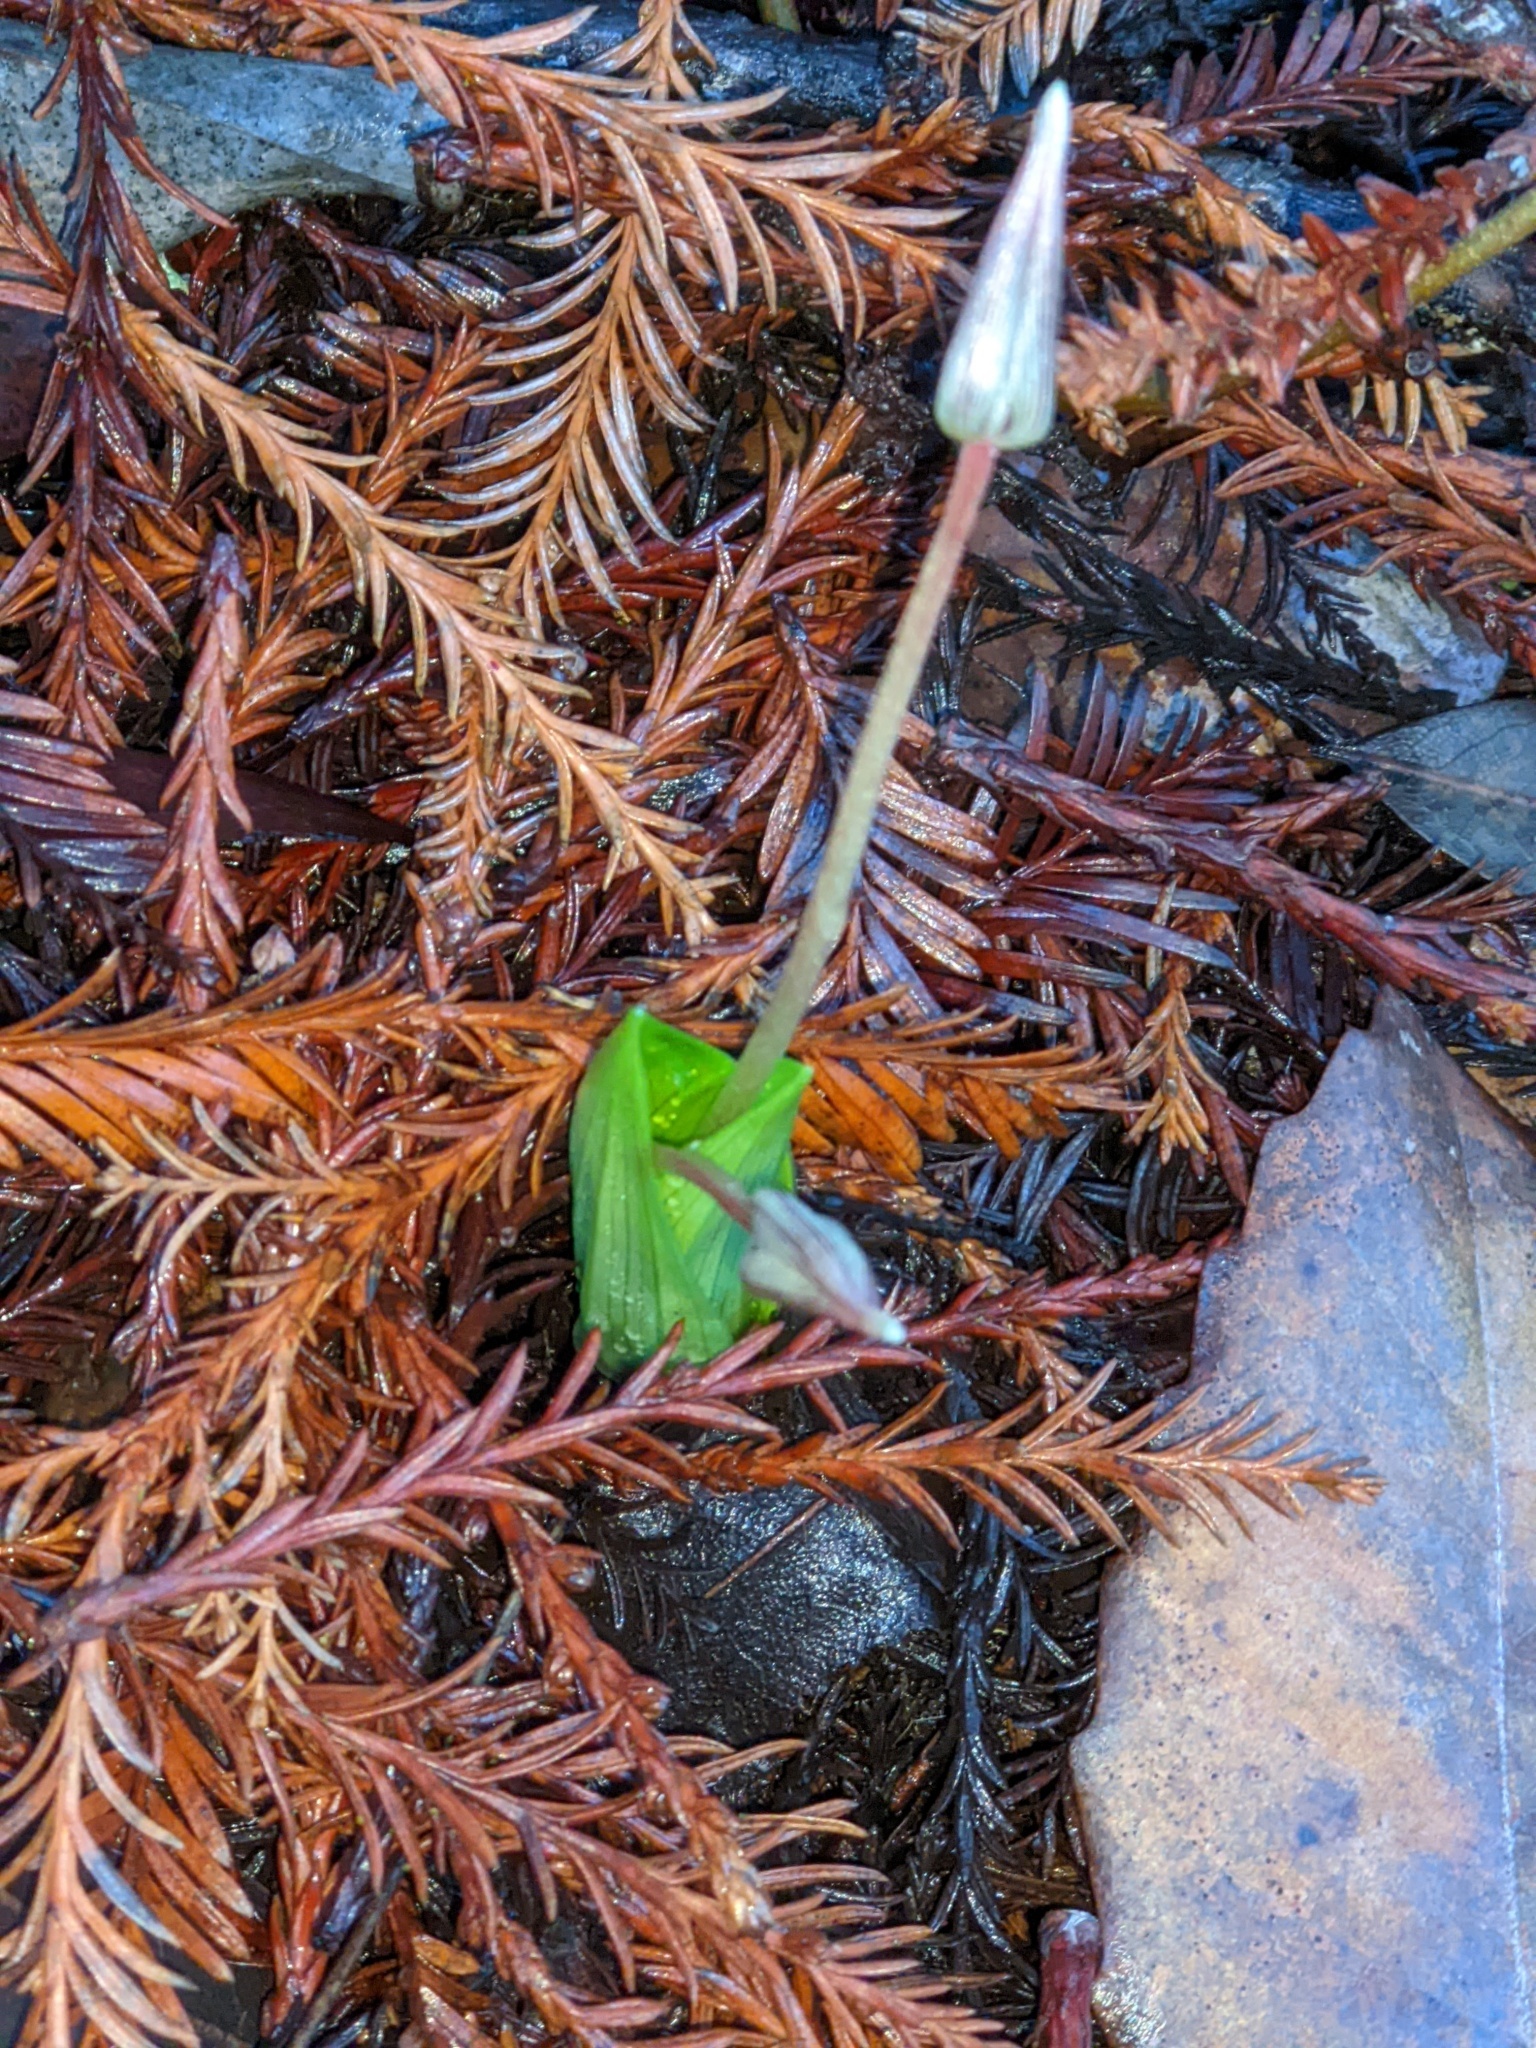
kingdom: Plantae
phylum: Tracheophyta
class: Liliopsida
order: Liliales
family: Liliaceae
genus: Scoliopus
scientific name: Scoliopus bigelovii
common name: Foetid adder's-tongue
